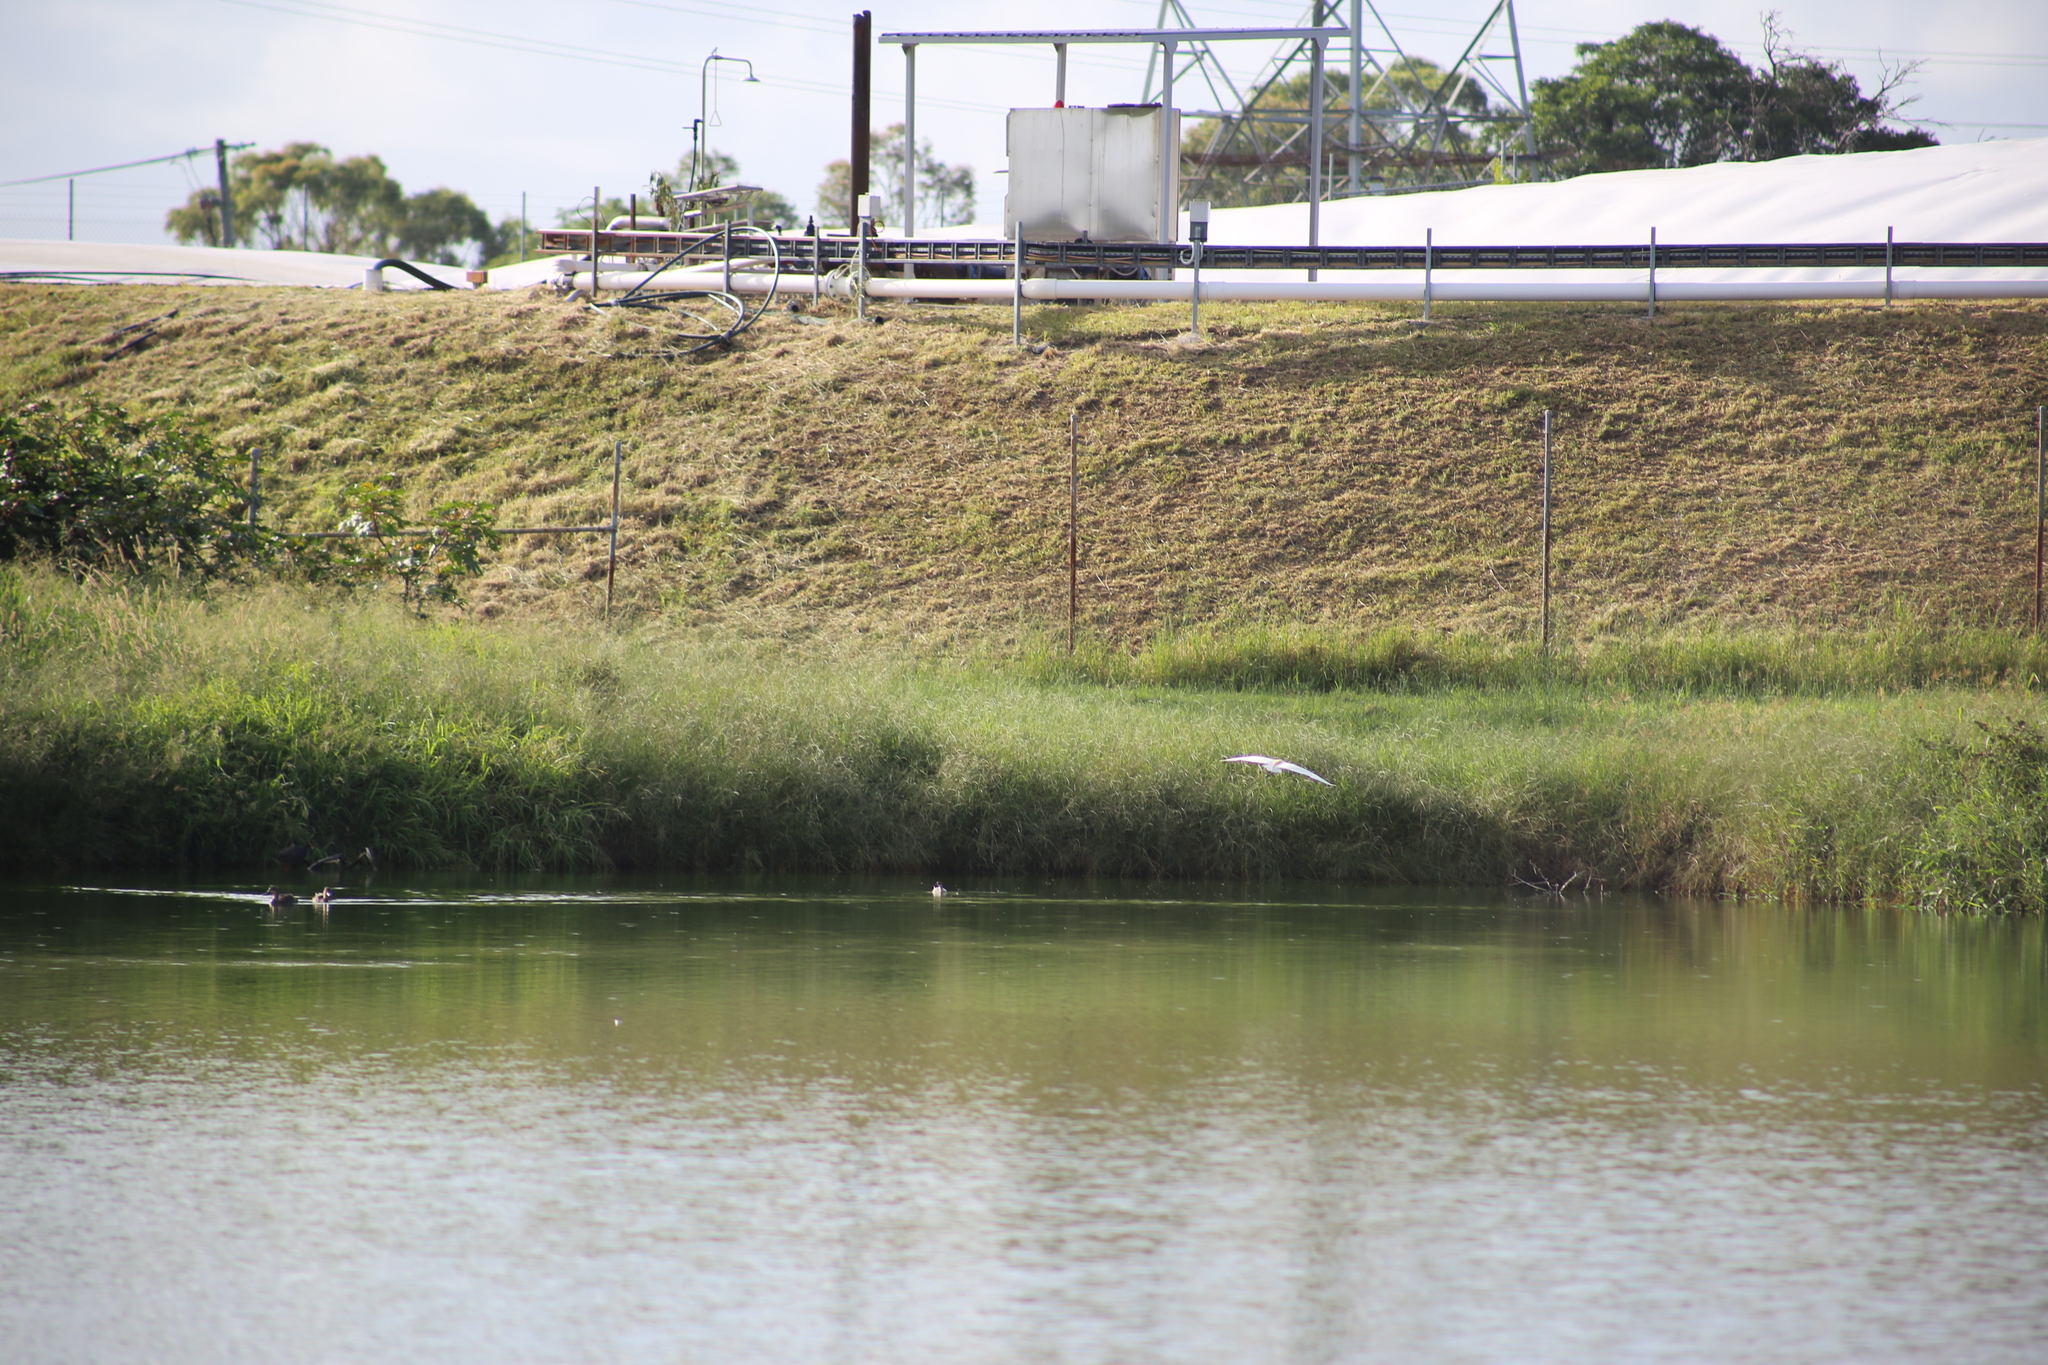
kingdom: Animalia
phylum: Chordata
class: Aves
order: Pelecaniformes
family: Ardeidae
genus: Bubulcus
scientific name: Bubulcus coromandus
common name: Eastern cattle egret
